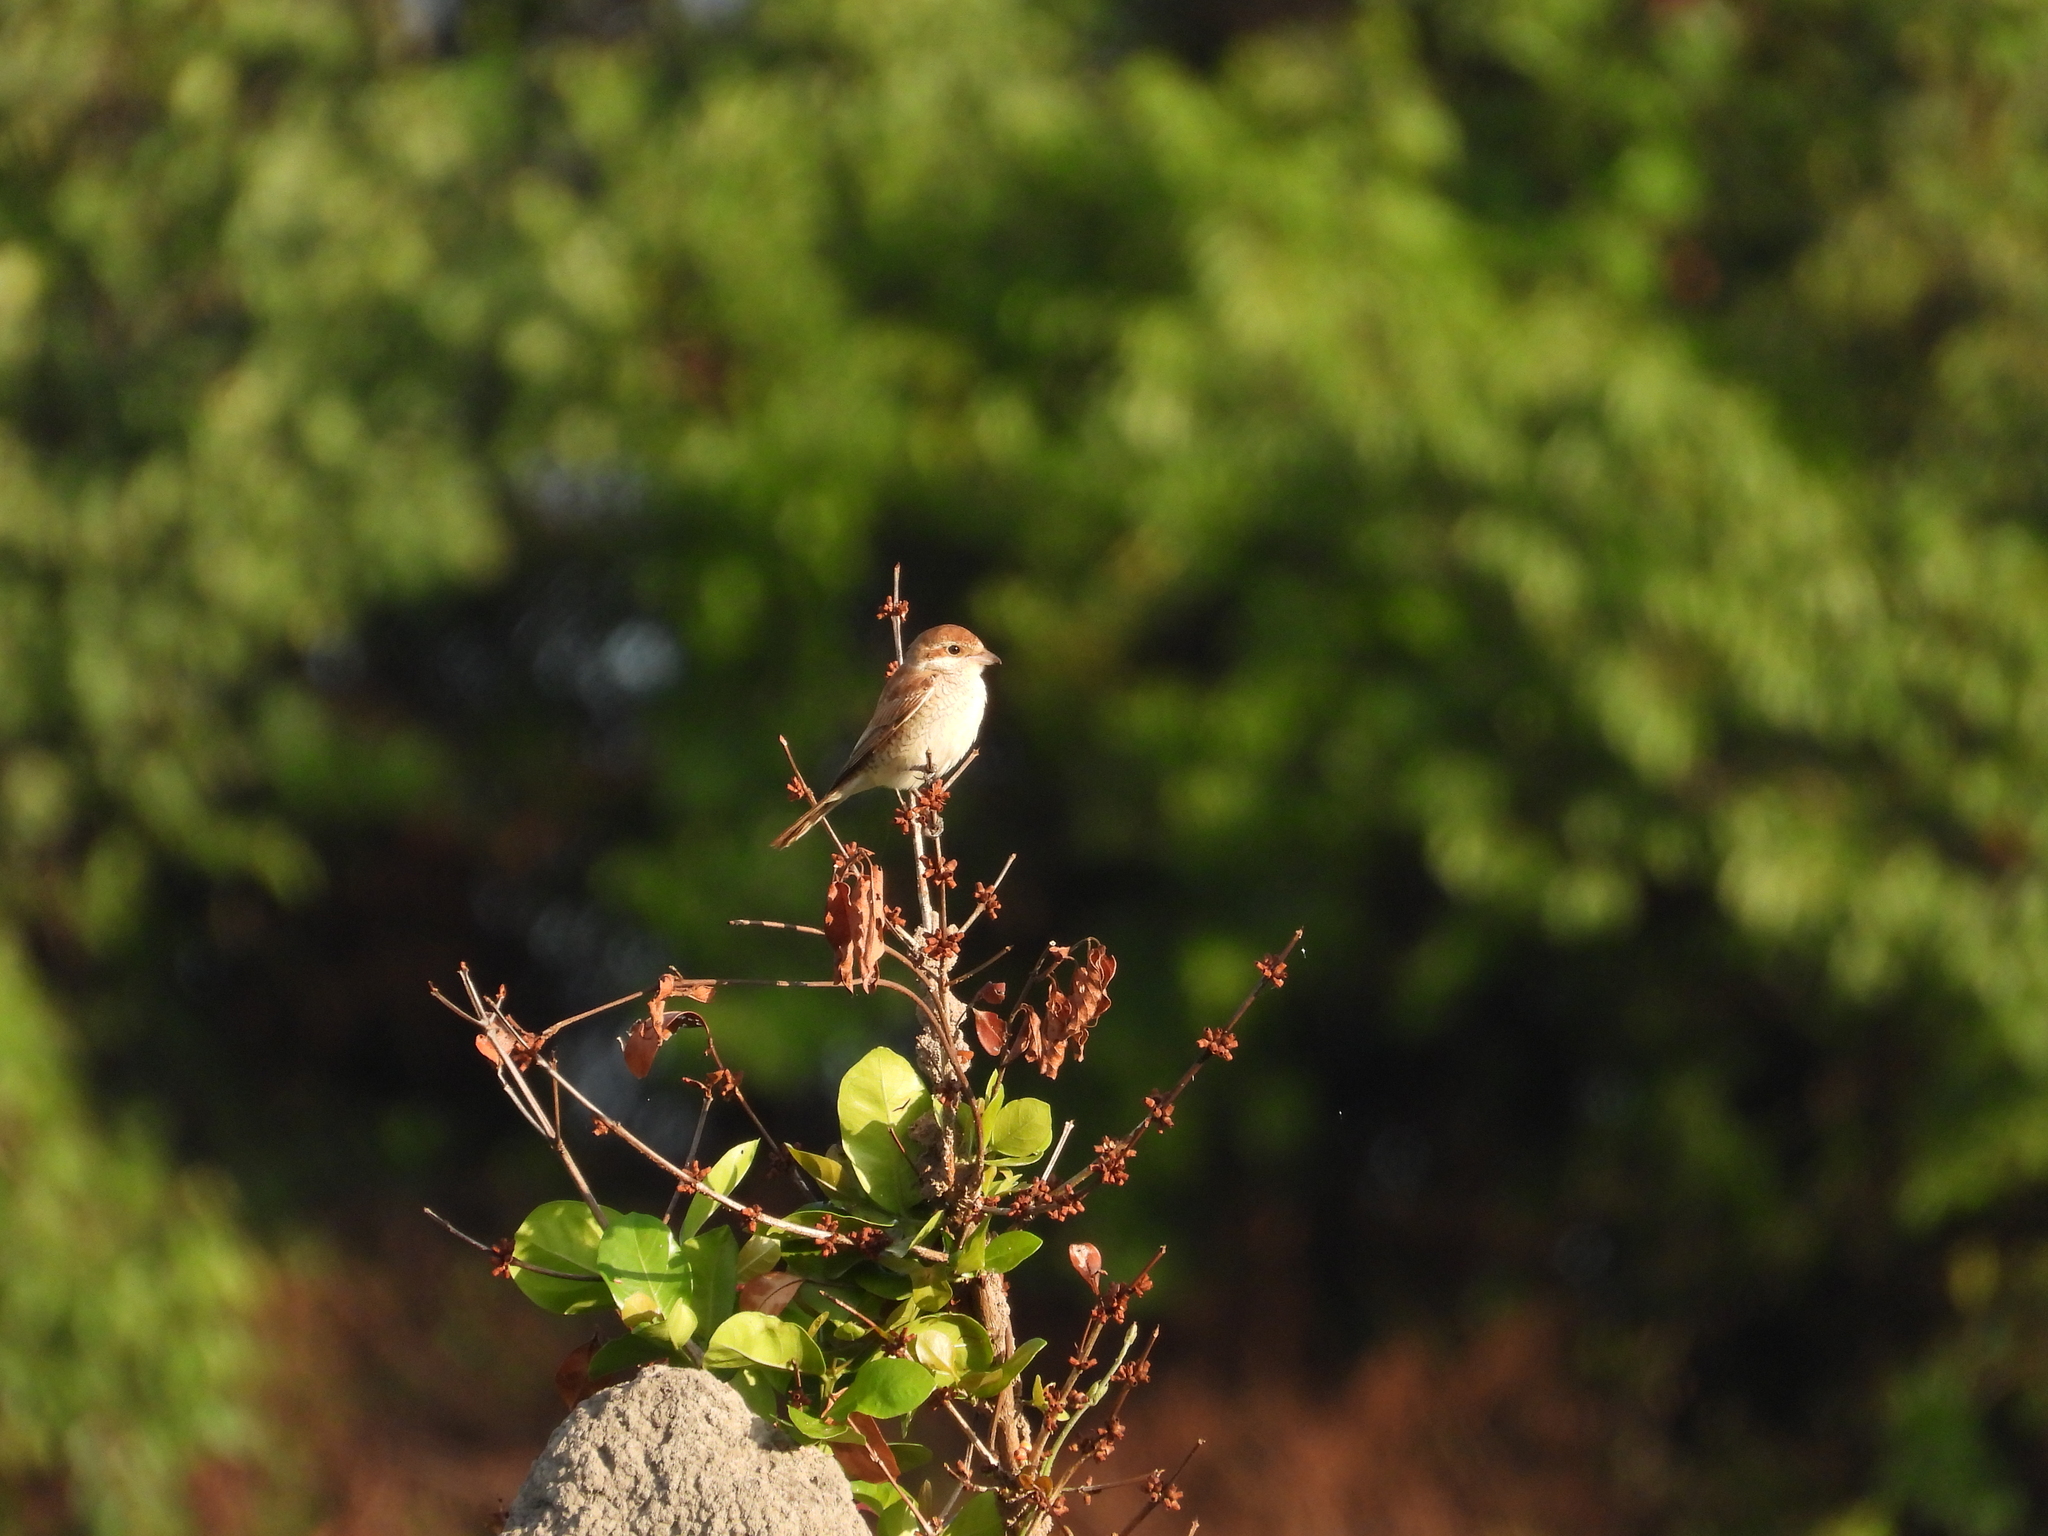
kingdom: Animalia
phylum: Chordata
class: Aves
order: Passeriformes
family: Laniidae
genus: Lanius
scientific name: Lanius collurio
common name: Red-backed shrike
